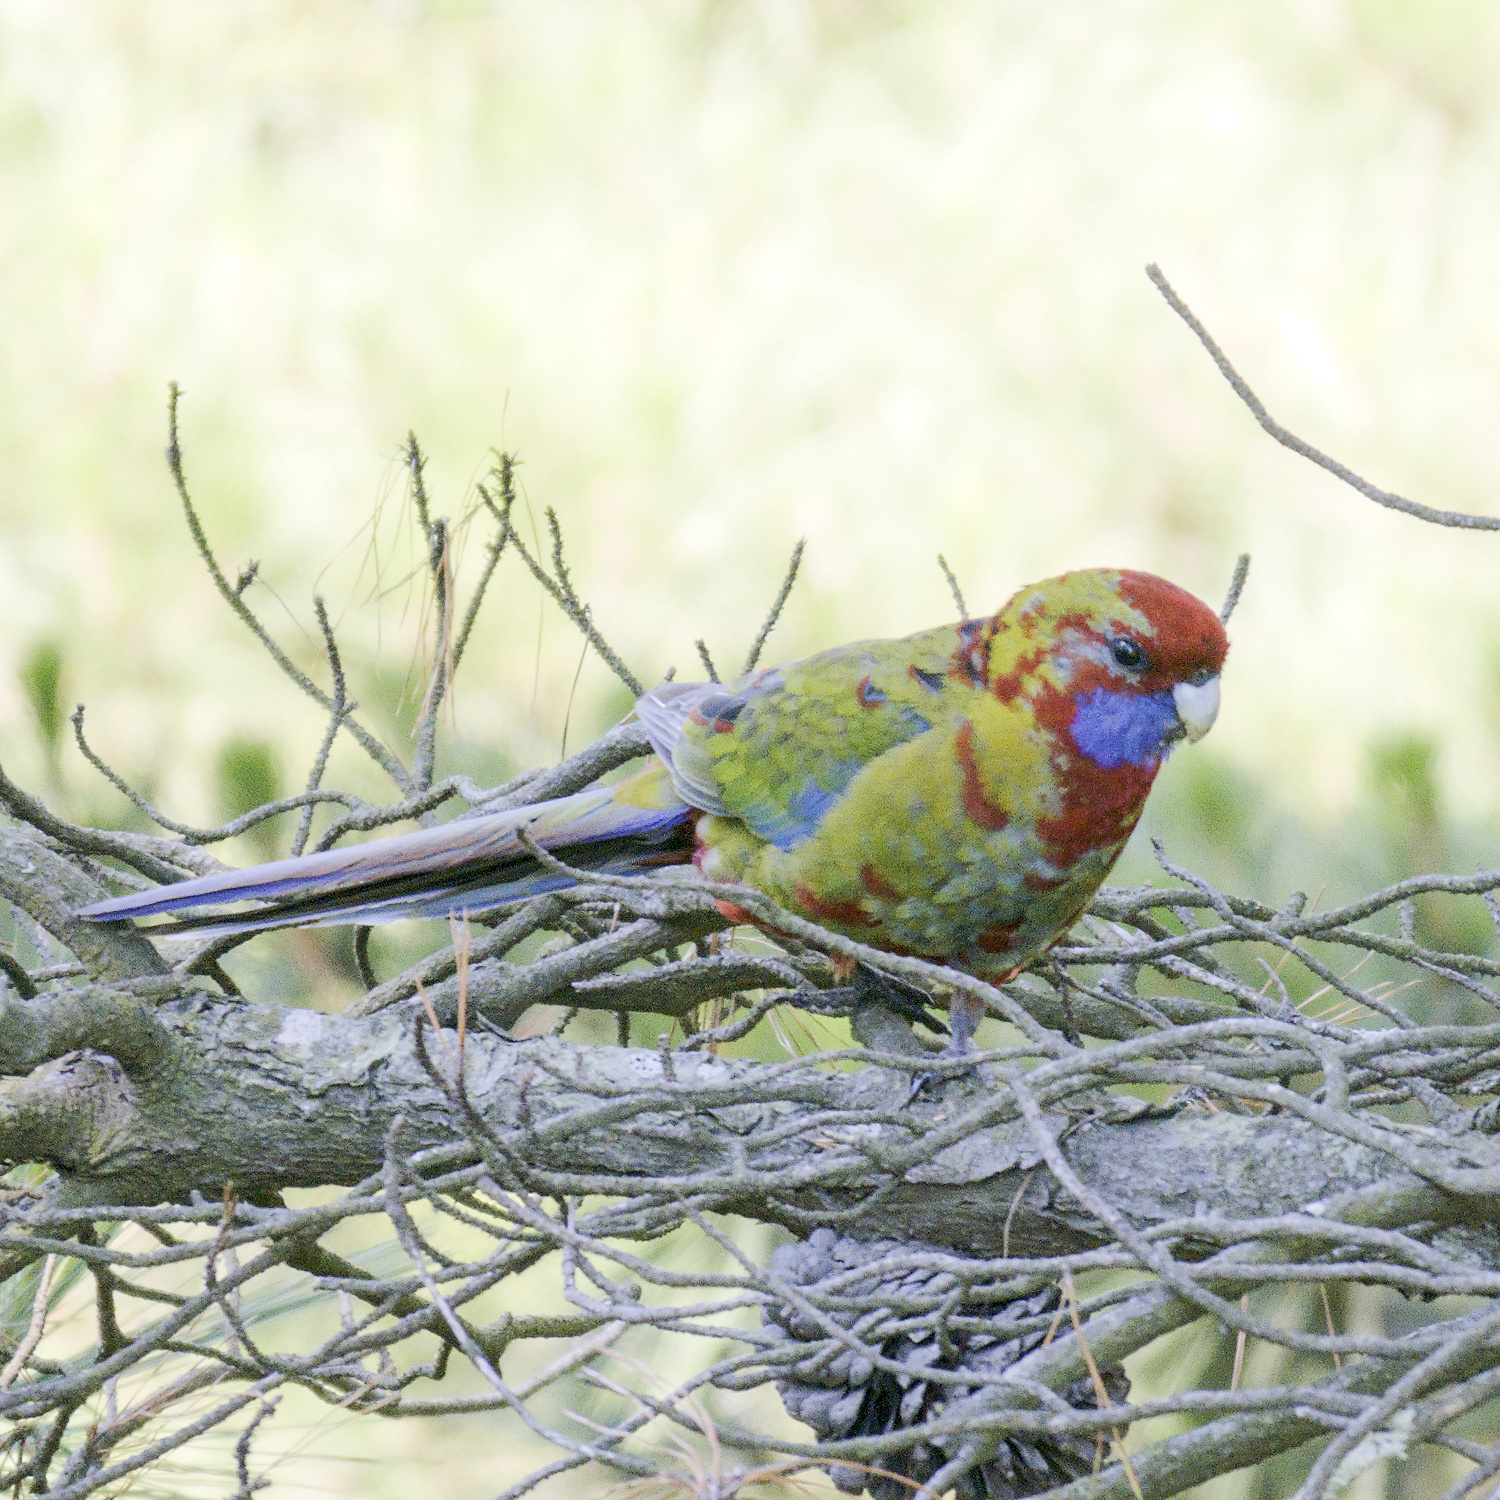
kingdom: Animalia
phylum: Chordata
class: Aves
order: Psittaciformes
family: Psittacidae
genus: Platycercus
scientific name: Platycercus elegans
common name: Crimson rosella
